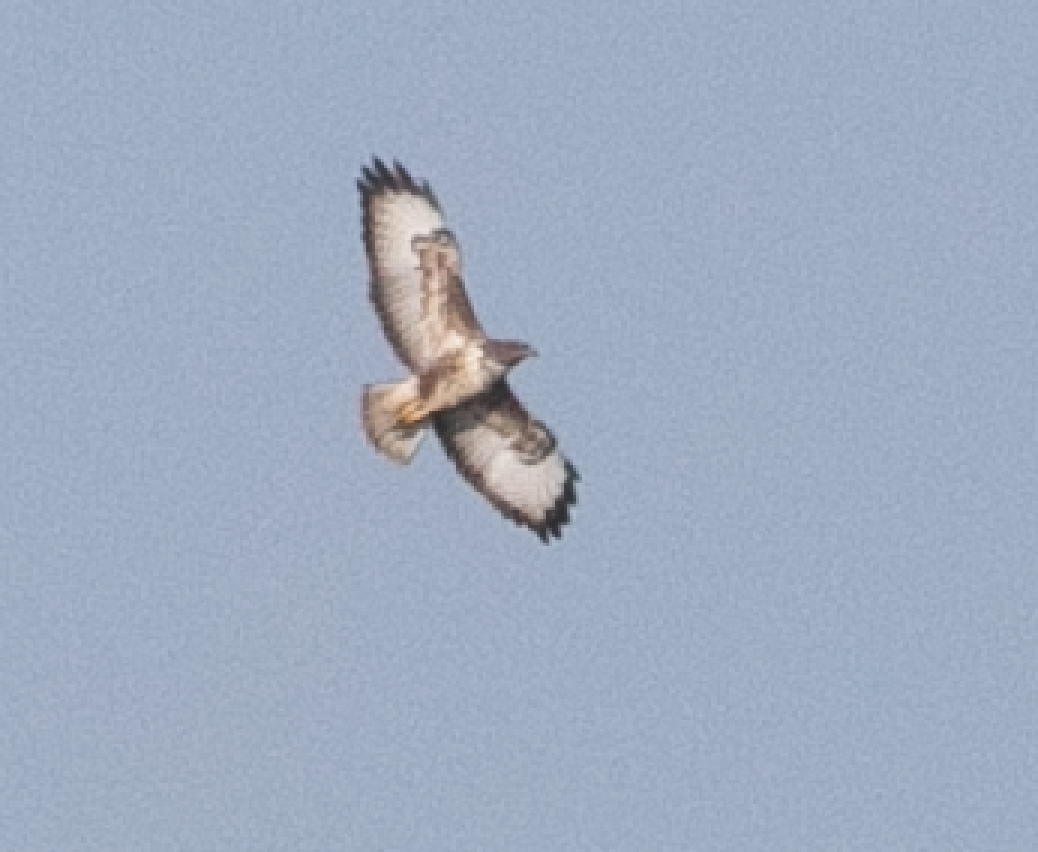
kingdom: Animalia
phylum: Chordata
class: Aves
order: Accipitriformes
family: Accipitridae
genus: Buteo
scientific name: Buteo buteo
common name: Common buzzard
